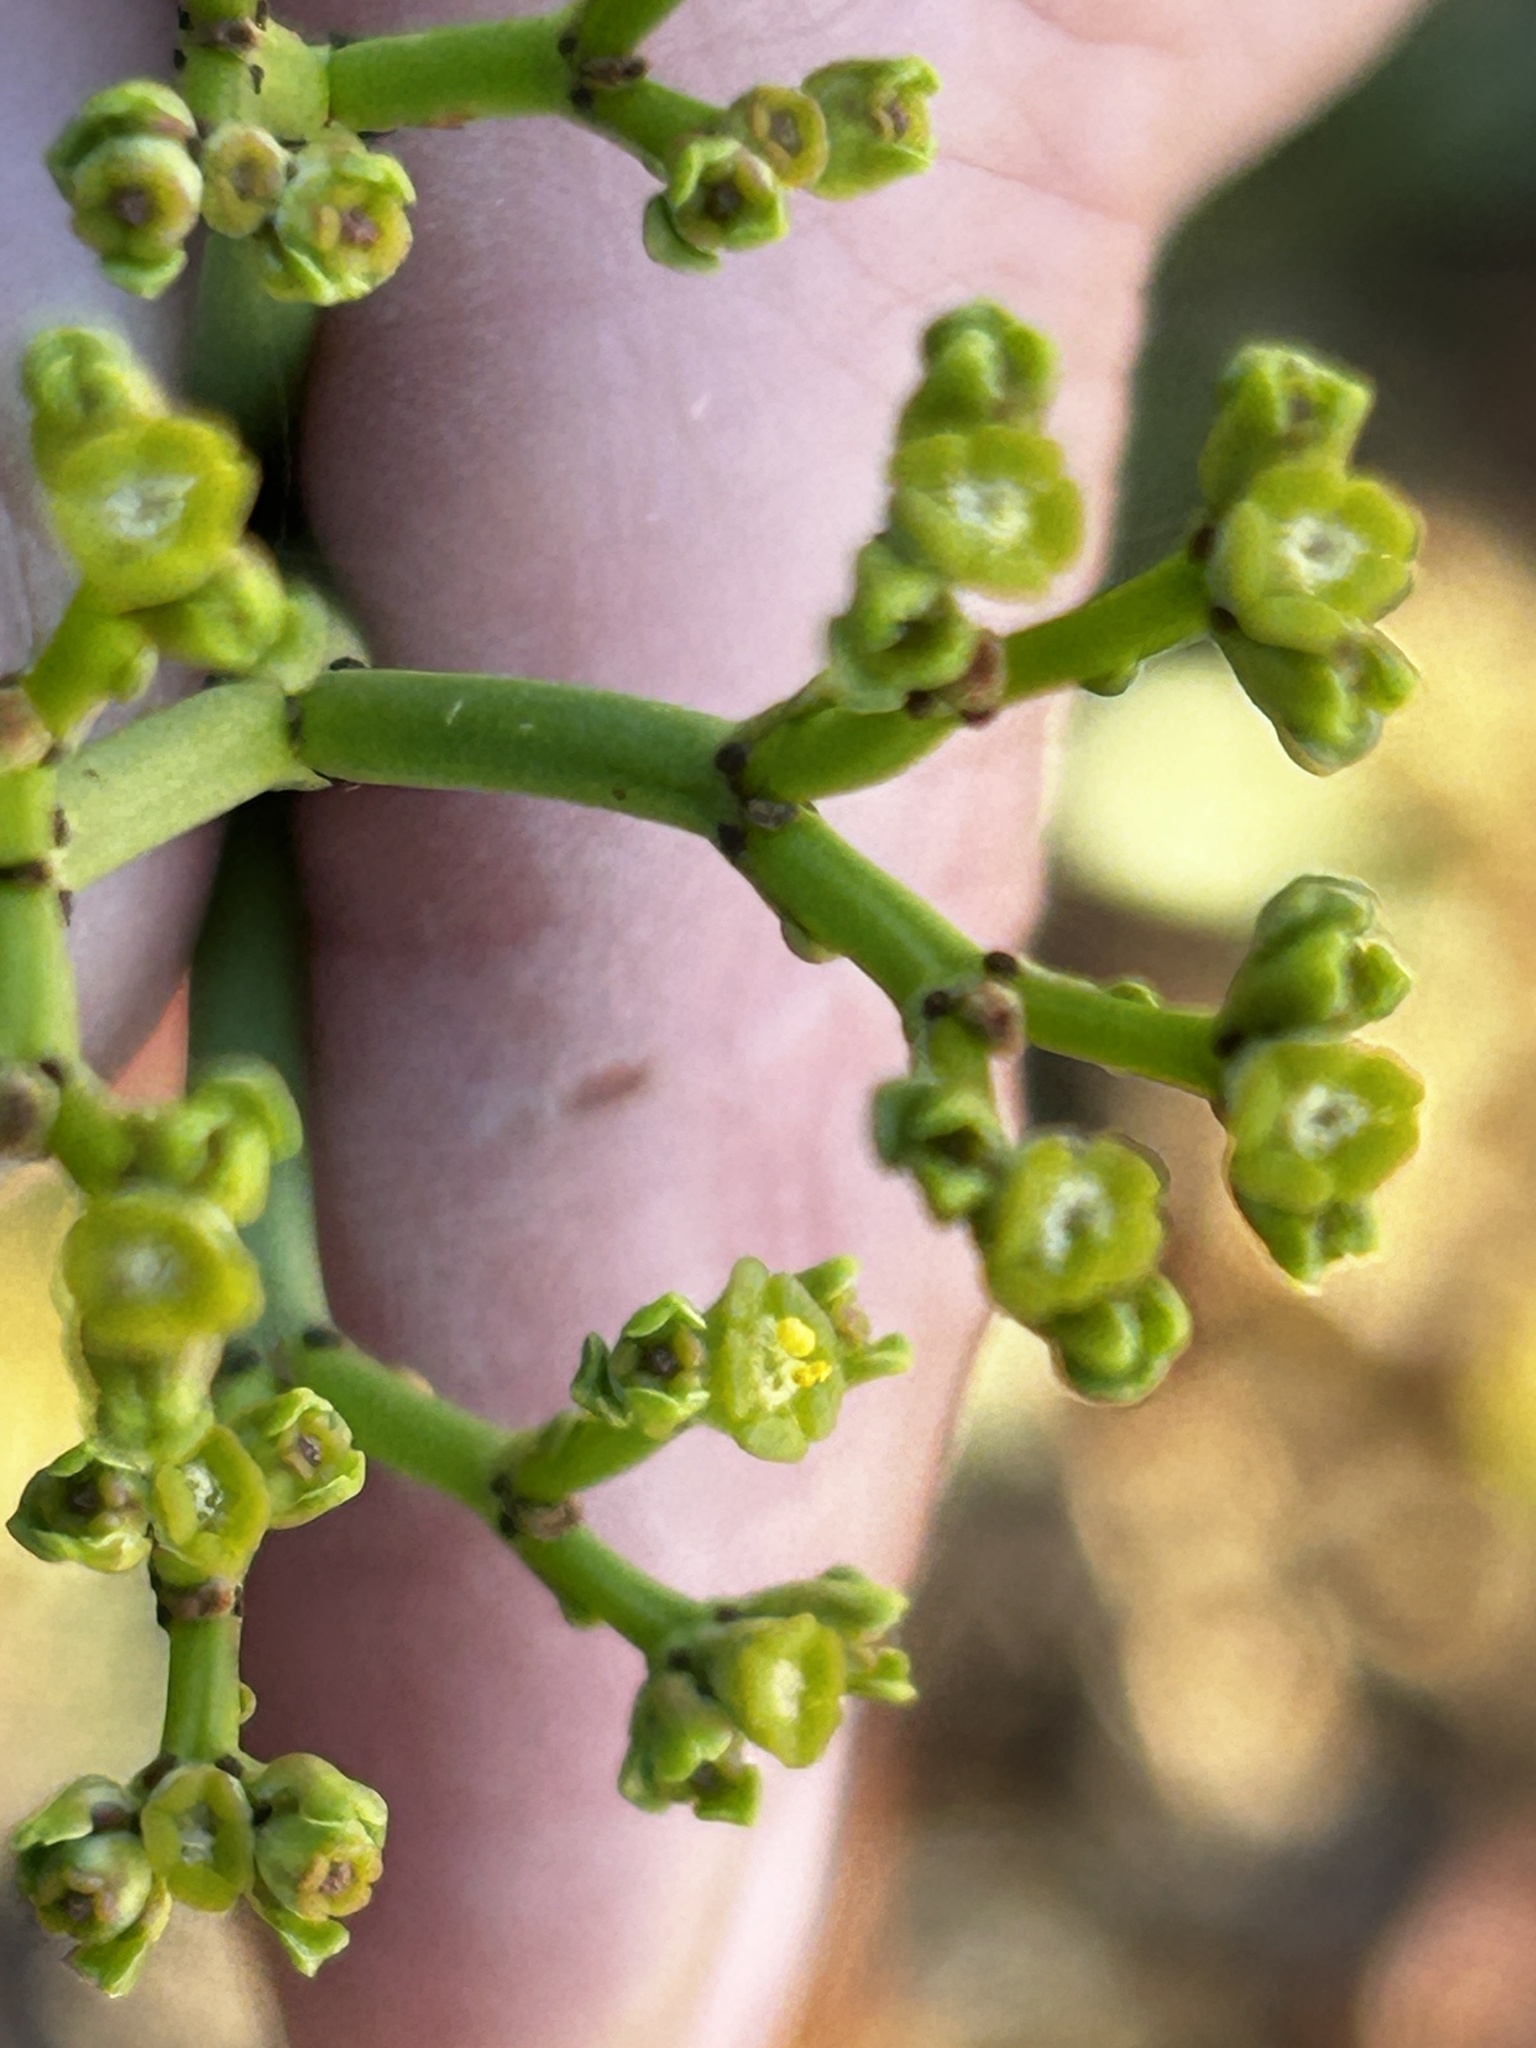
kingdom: Plantae
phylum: Tracheophyta
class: Magnoliopsida
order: Malpighiales
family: Euphorbiaceae
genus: Euphorbia
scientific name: Euphorbia burmanni
